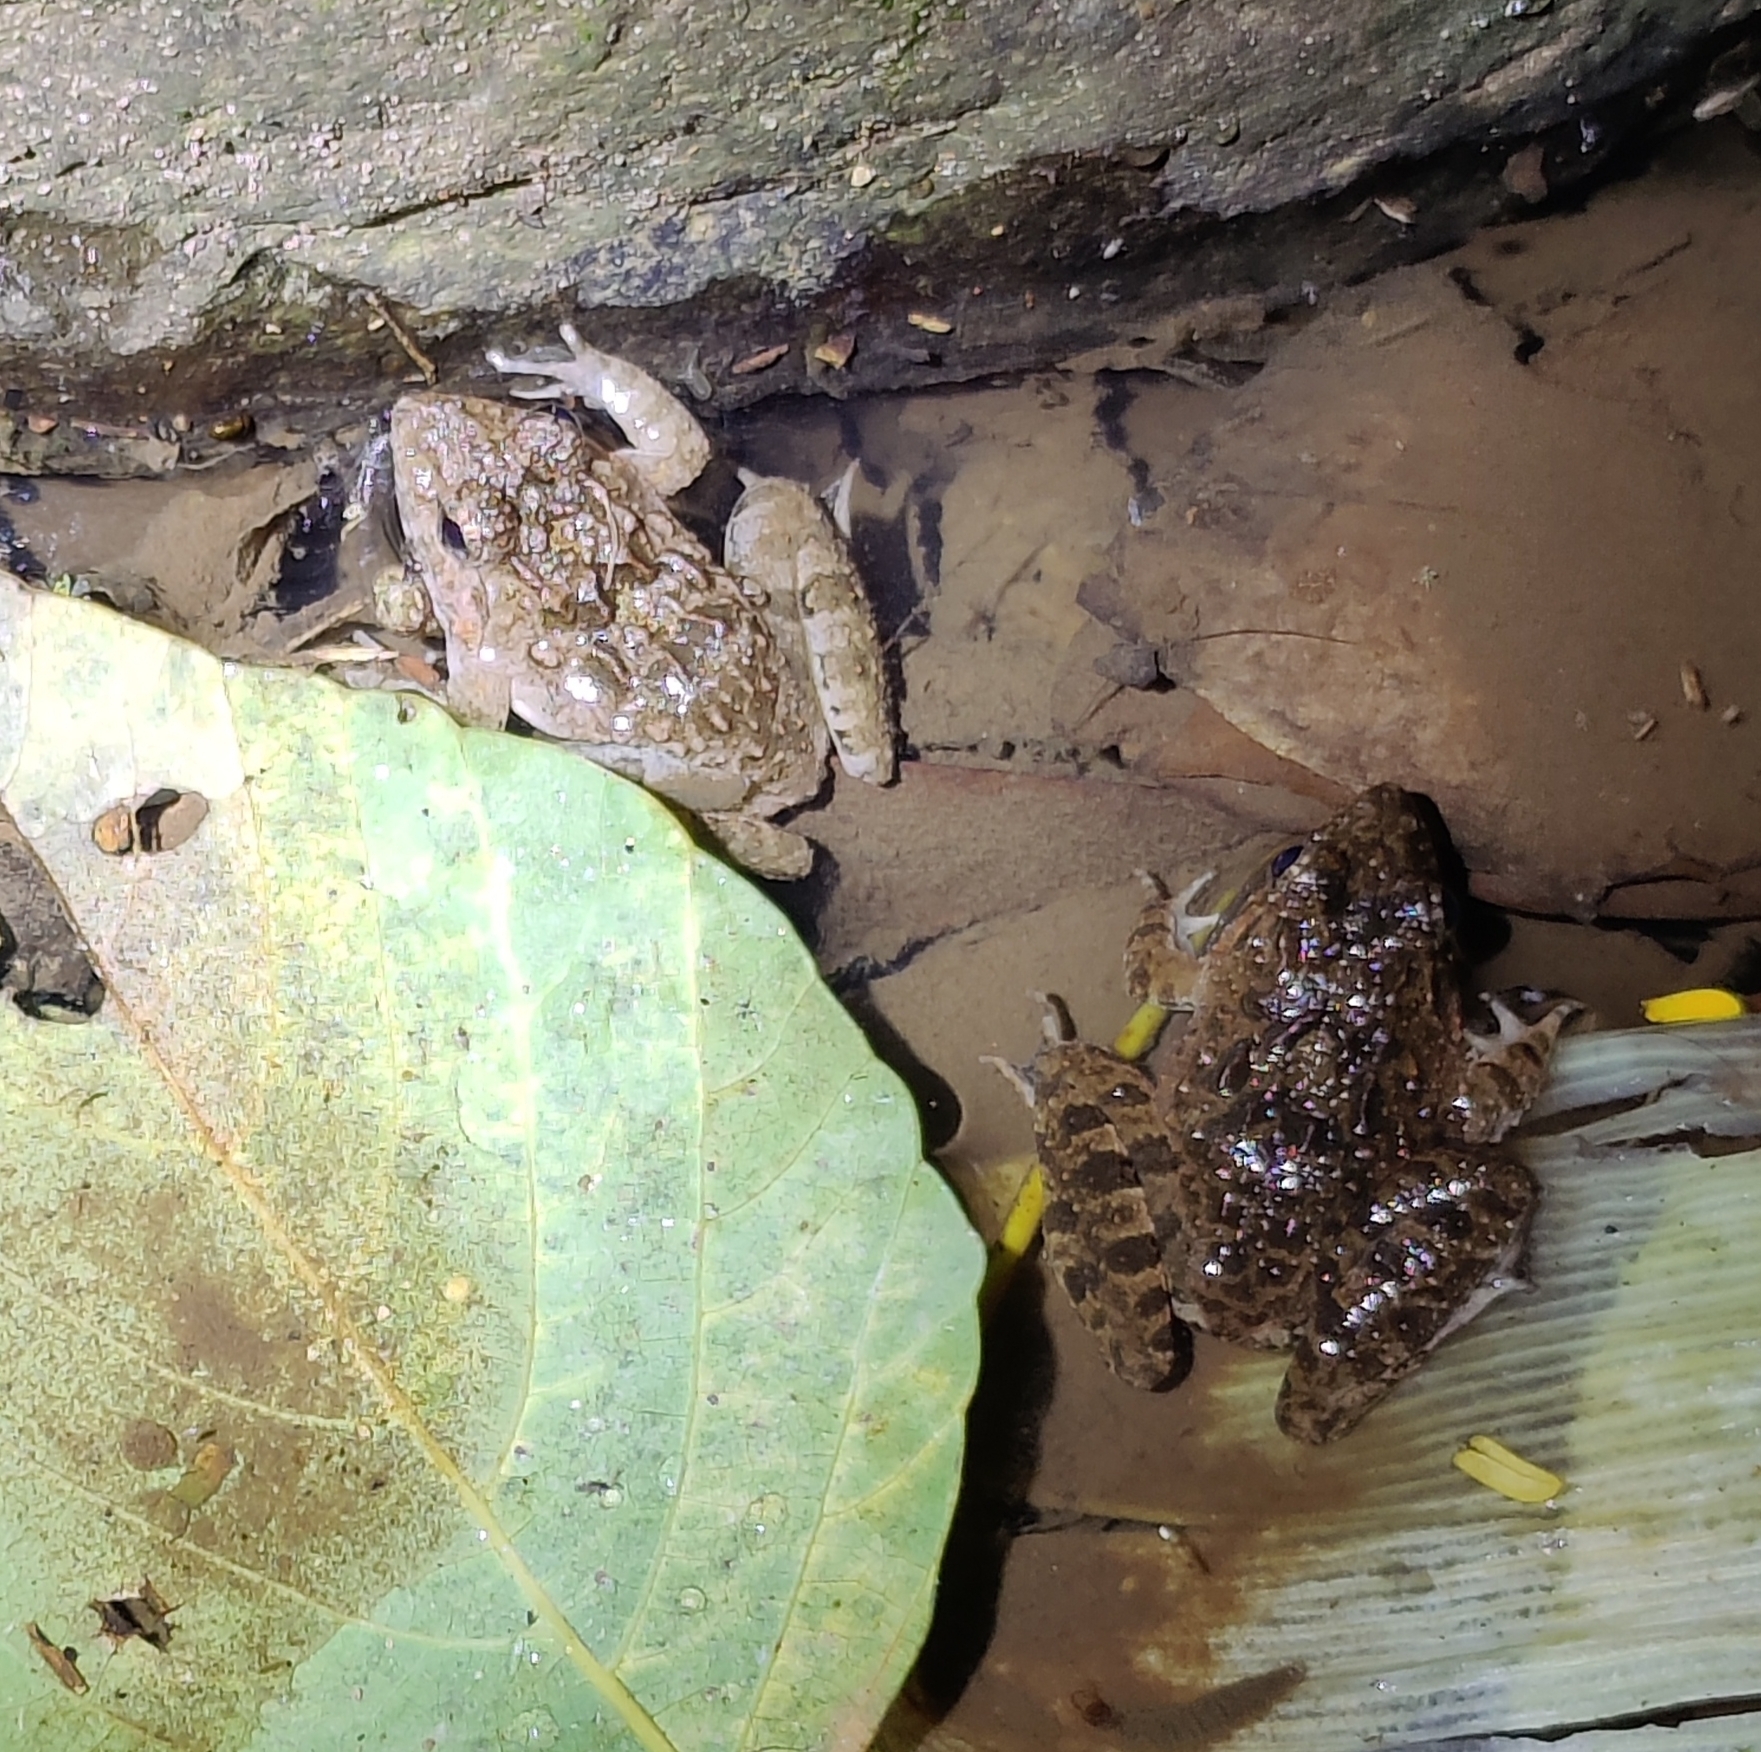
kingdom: Animalia
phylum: Chordata
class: Amphibia
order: Anura
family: Dicroglossidae
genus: Euphlyctis
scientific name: Euphlyctis cyanophlyctis
